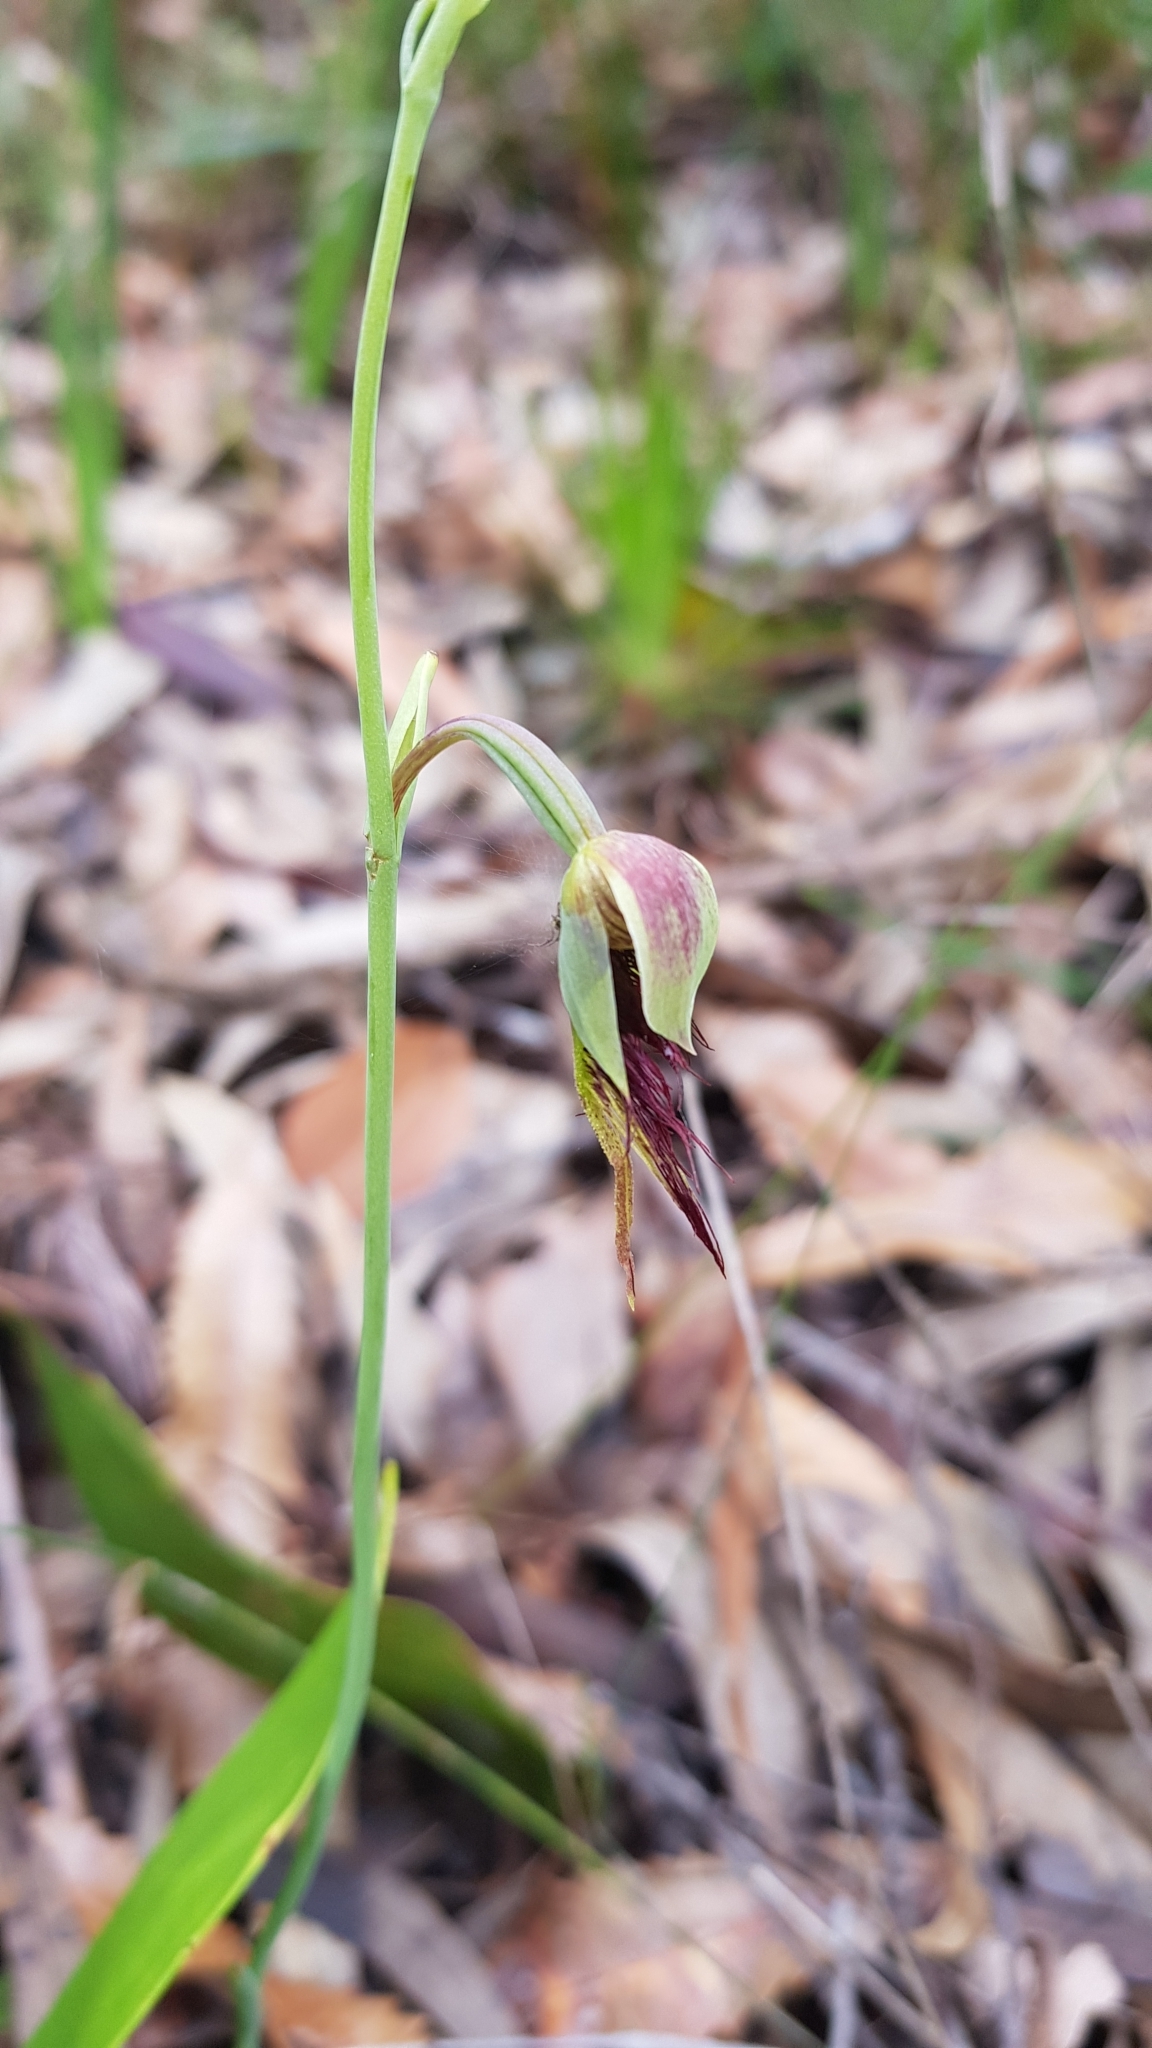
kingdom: Plantae
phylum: Tracheophyta
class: Liliopsida
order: Asparagales
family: Orchidaceae
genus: Calochilus
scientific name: Calochilus paludosus
